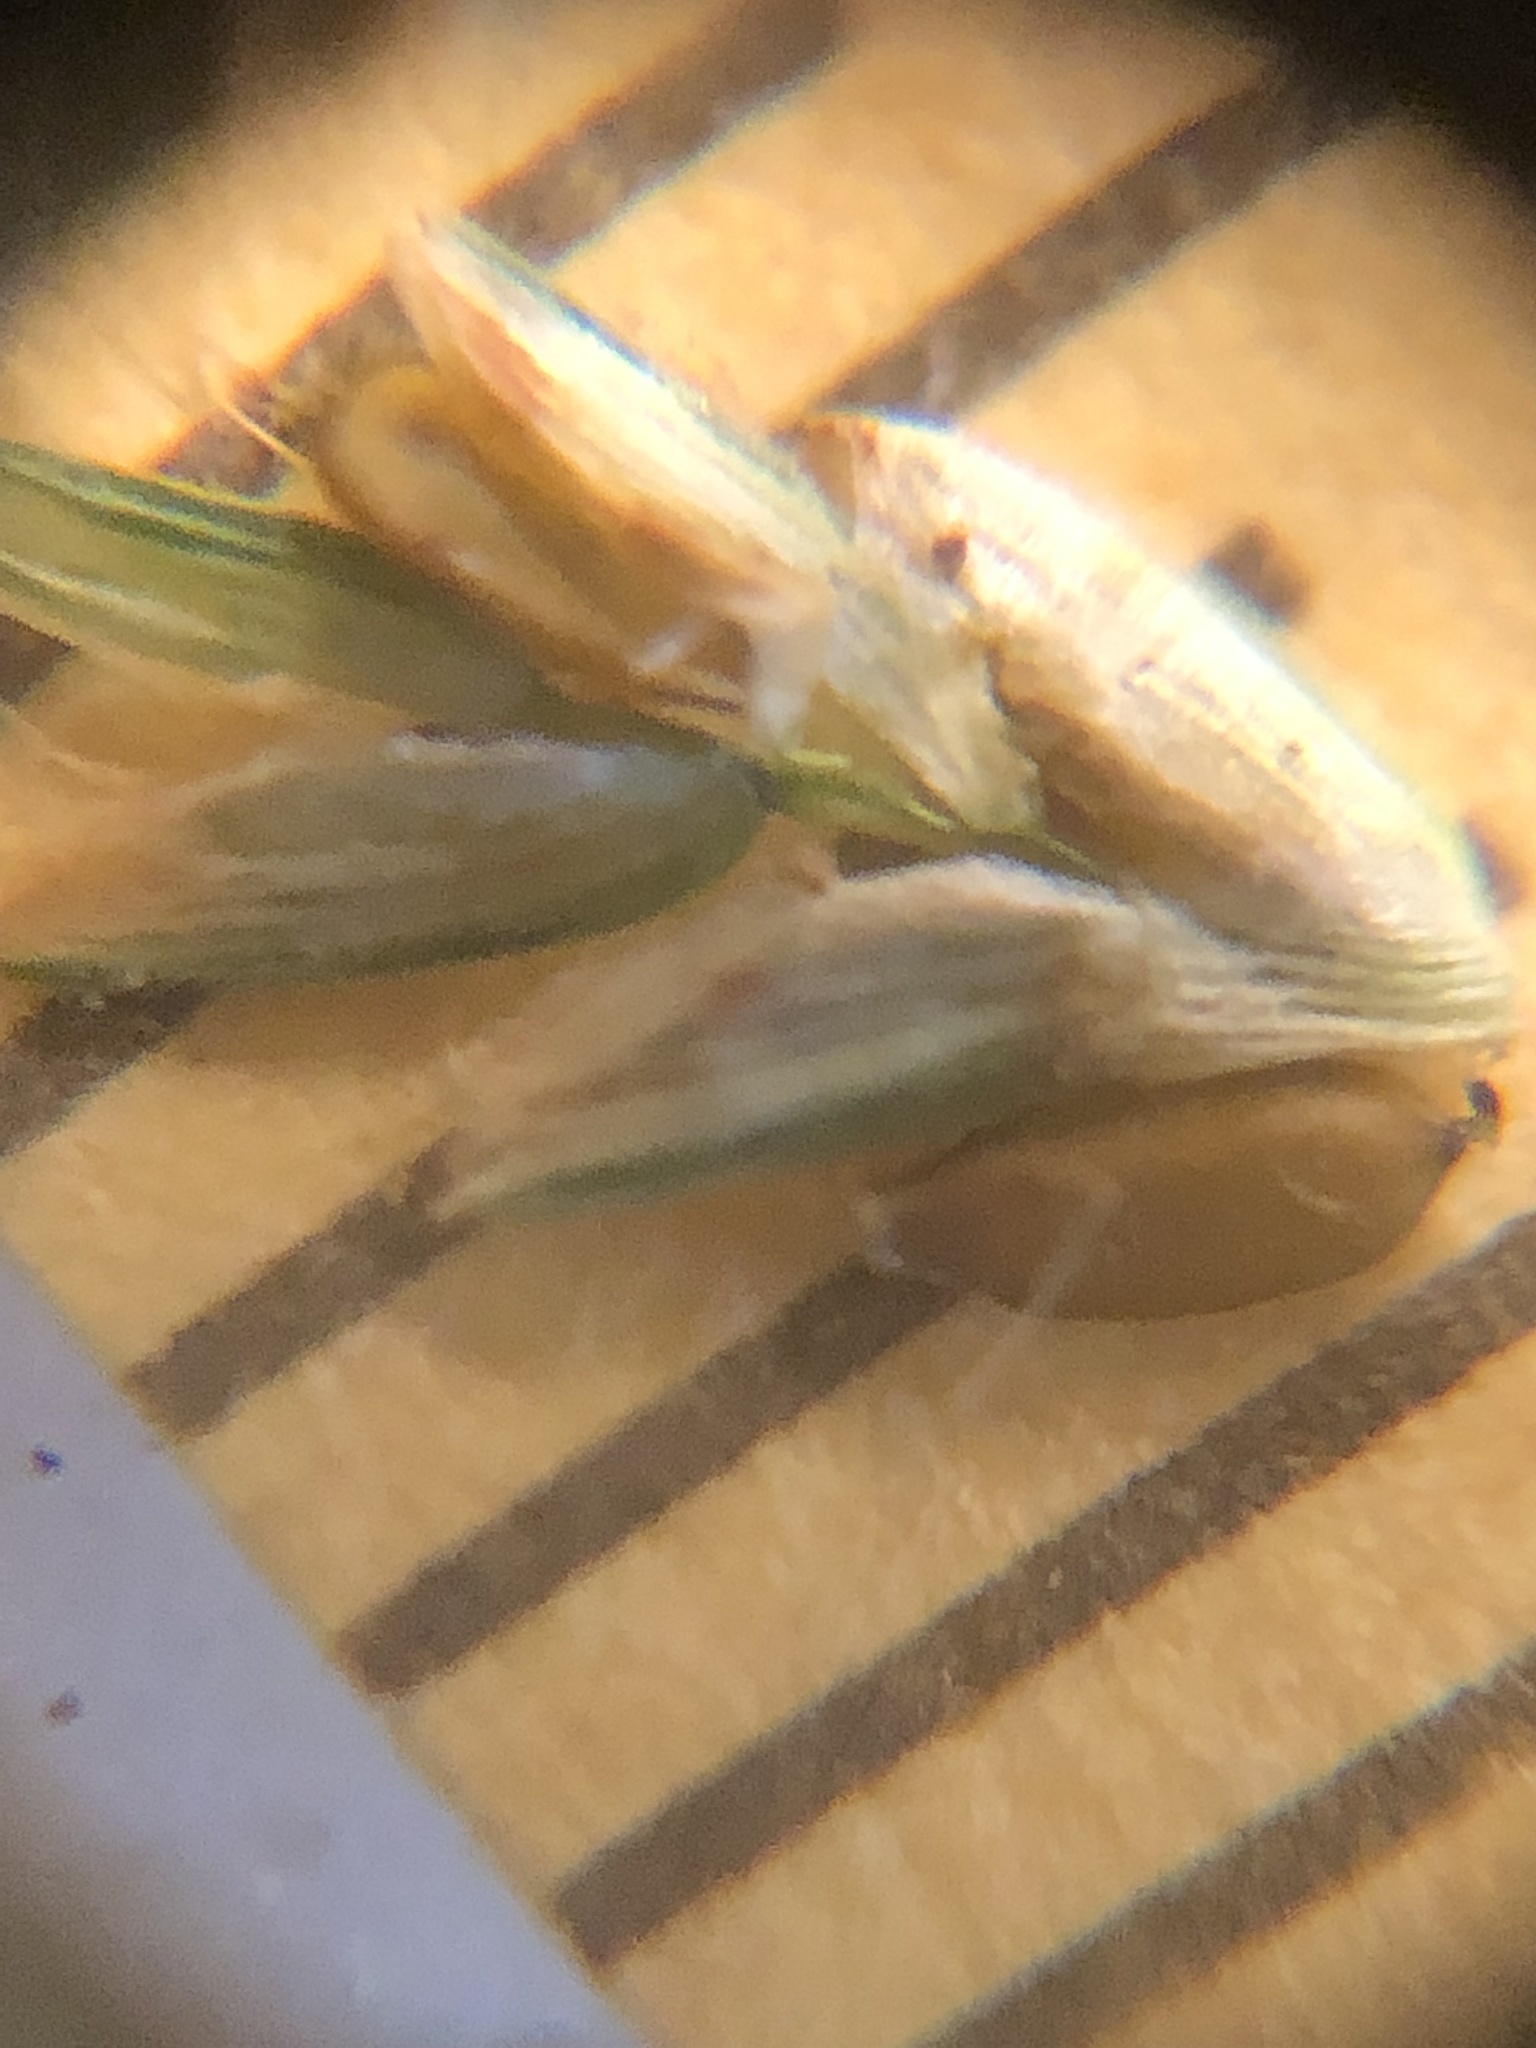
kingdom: Plantae
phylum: Tracheophyta
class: Liliopsida
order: Poales
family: Cyperaceae
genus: Cyperus
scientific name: Cyperus filiculmis
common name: Slender sand sedge
